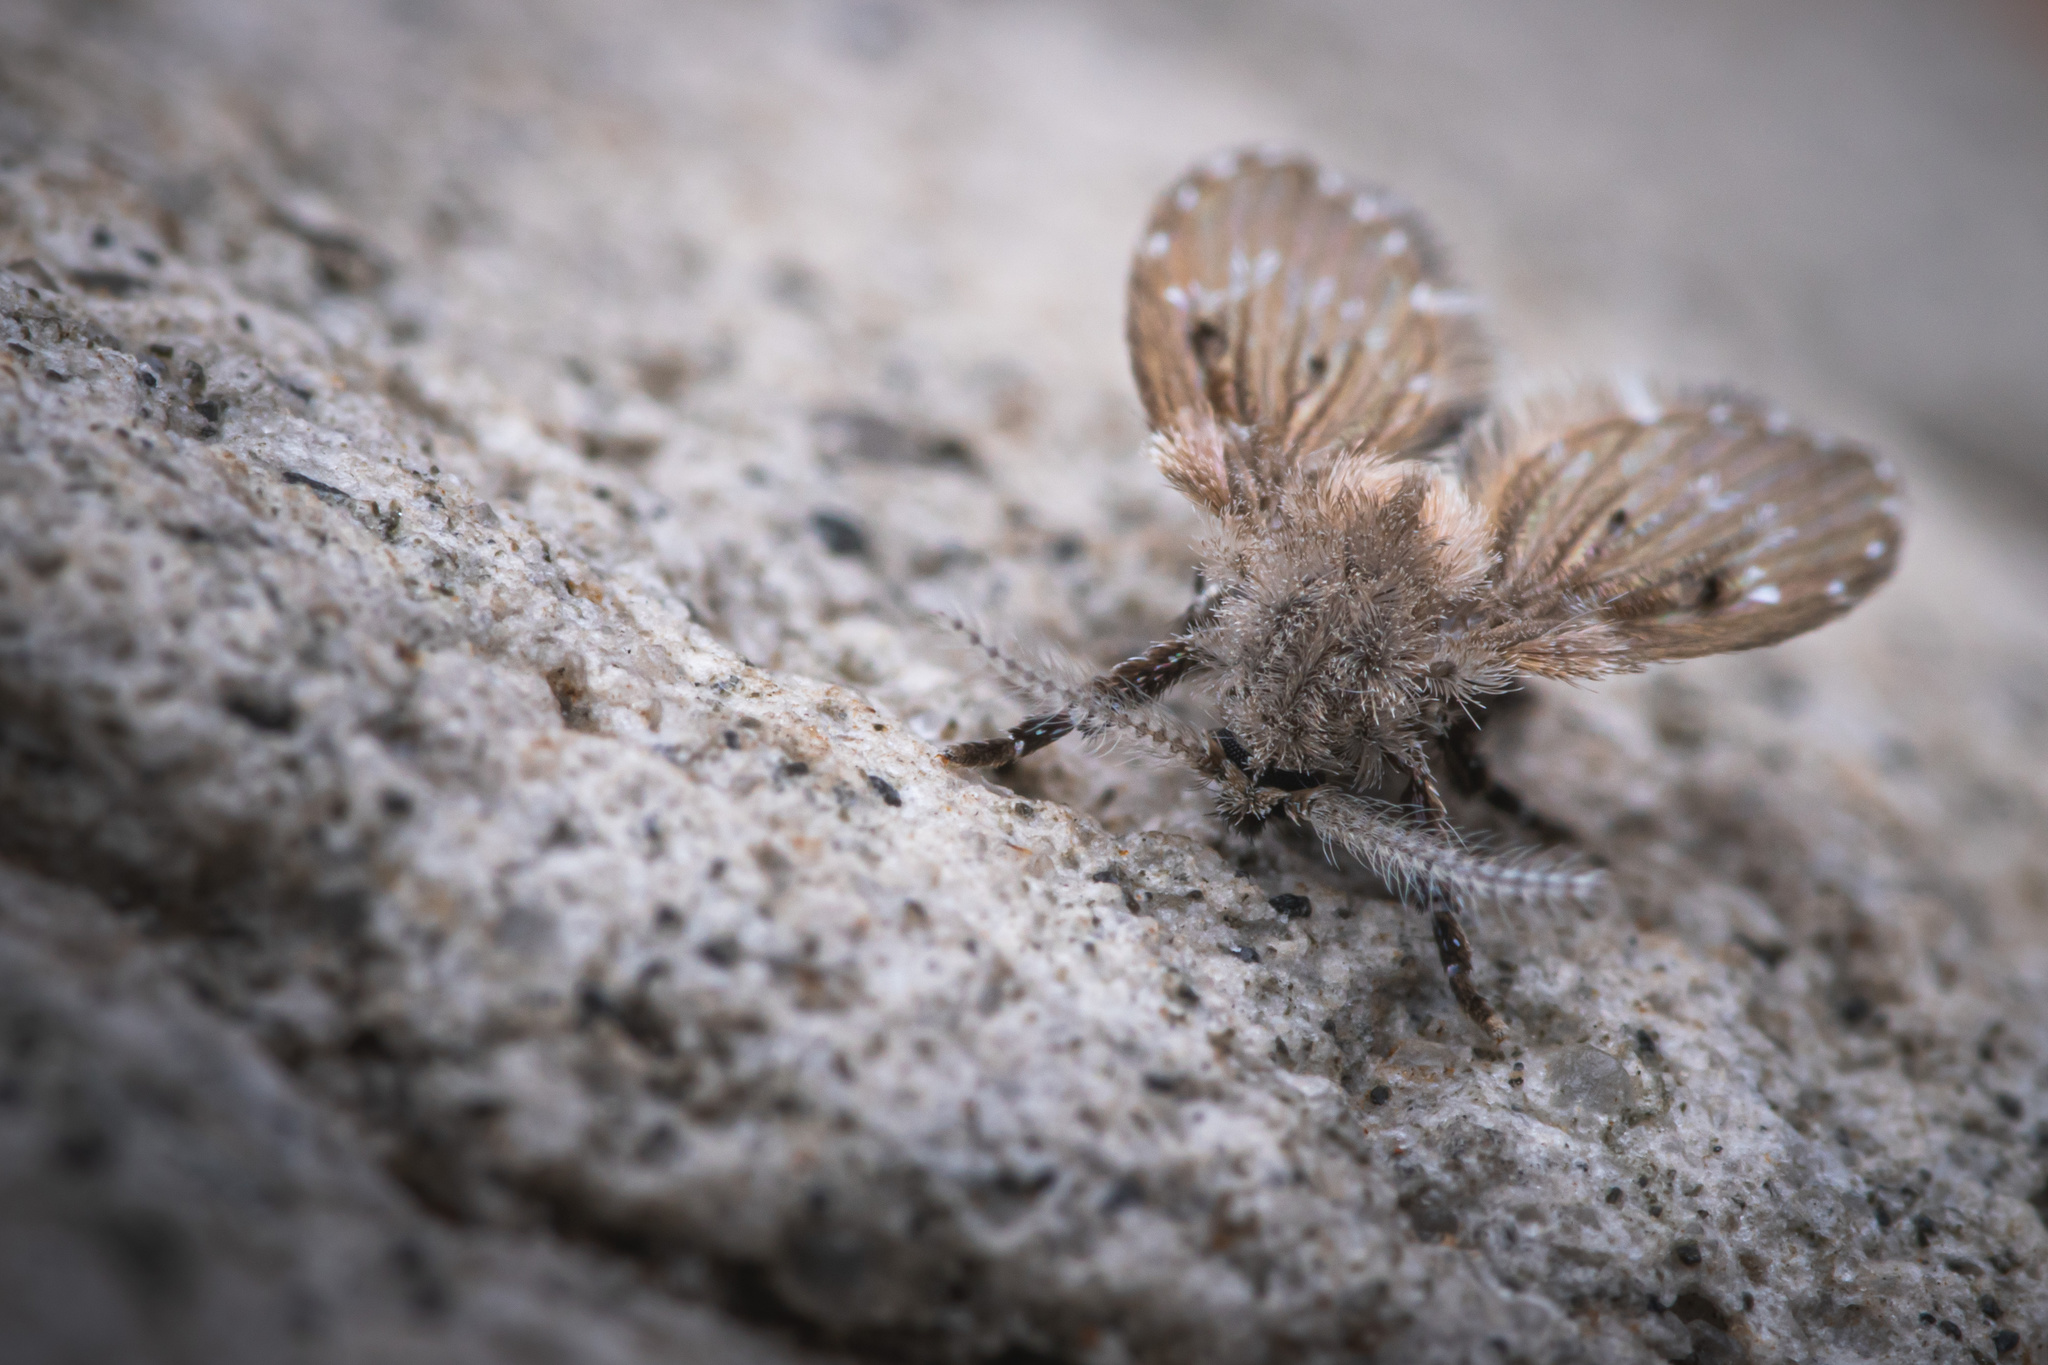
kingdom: Animalia
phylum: Arthropoda
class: Insecta
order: Diptera
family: Psychodidae
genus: Clogmia
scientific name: Clogmia albipunctatus
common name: White-spotted moth fly
